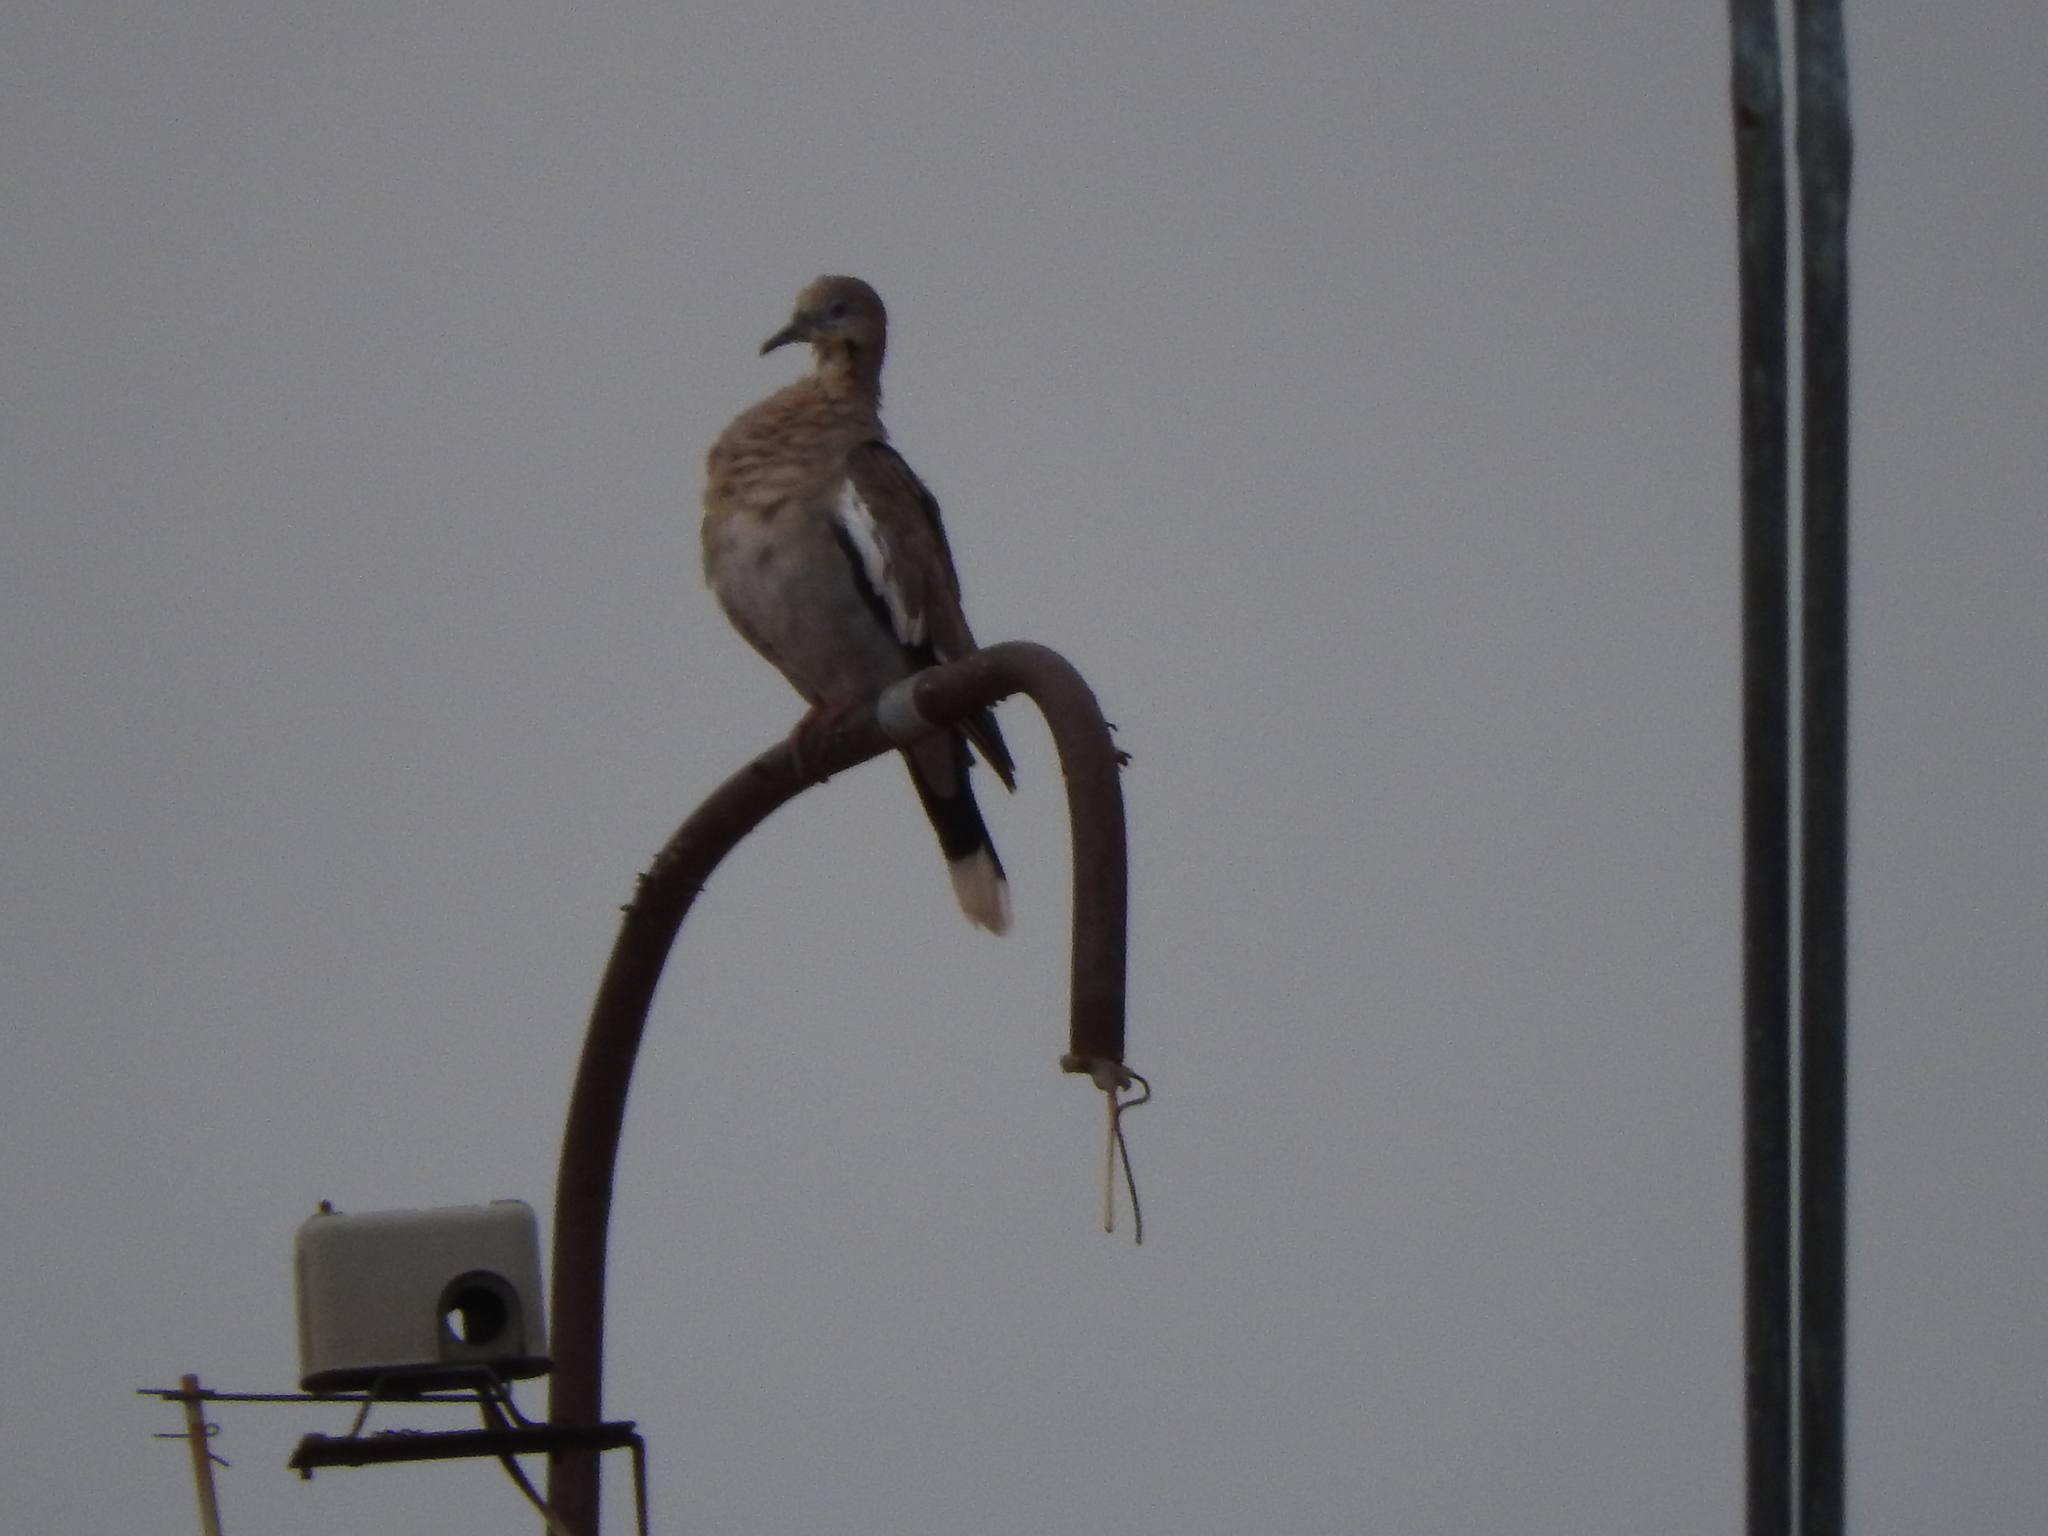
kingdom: Animalia
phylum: Chordata
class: Aves
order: Columbiformes
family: Columbidae
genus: Zenaida
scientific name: Zenaida asiatica
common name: White-winged dove
